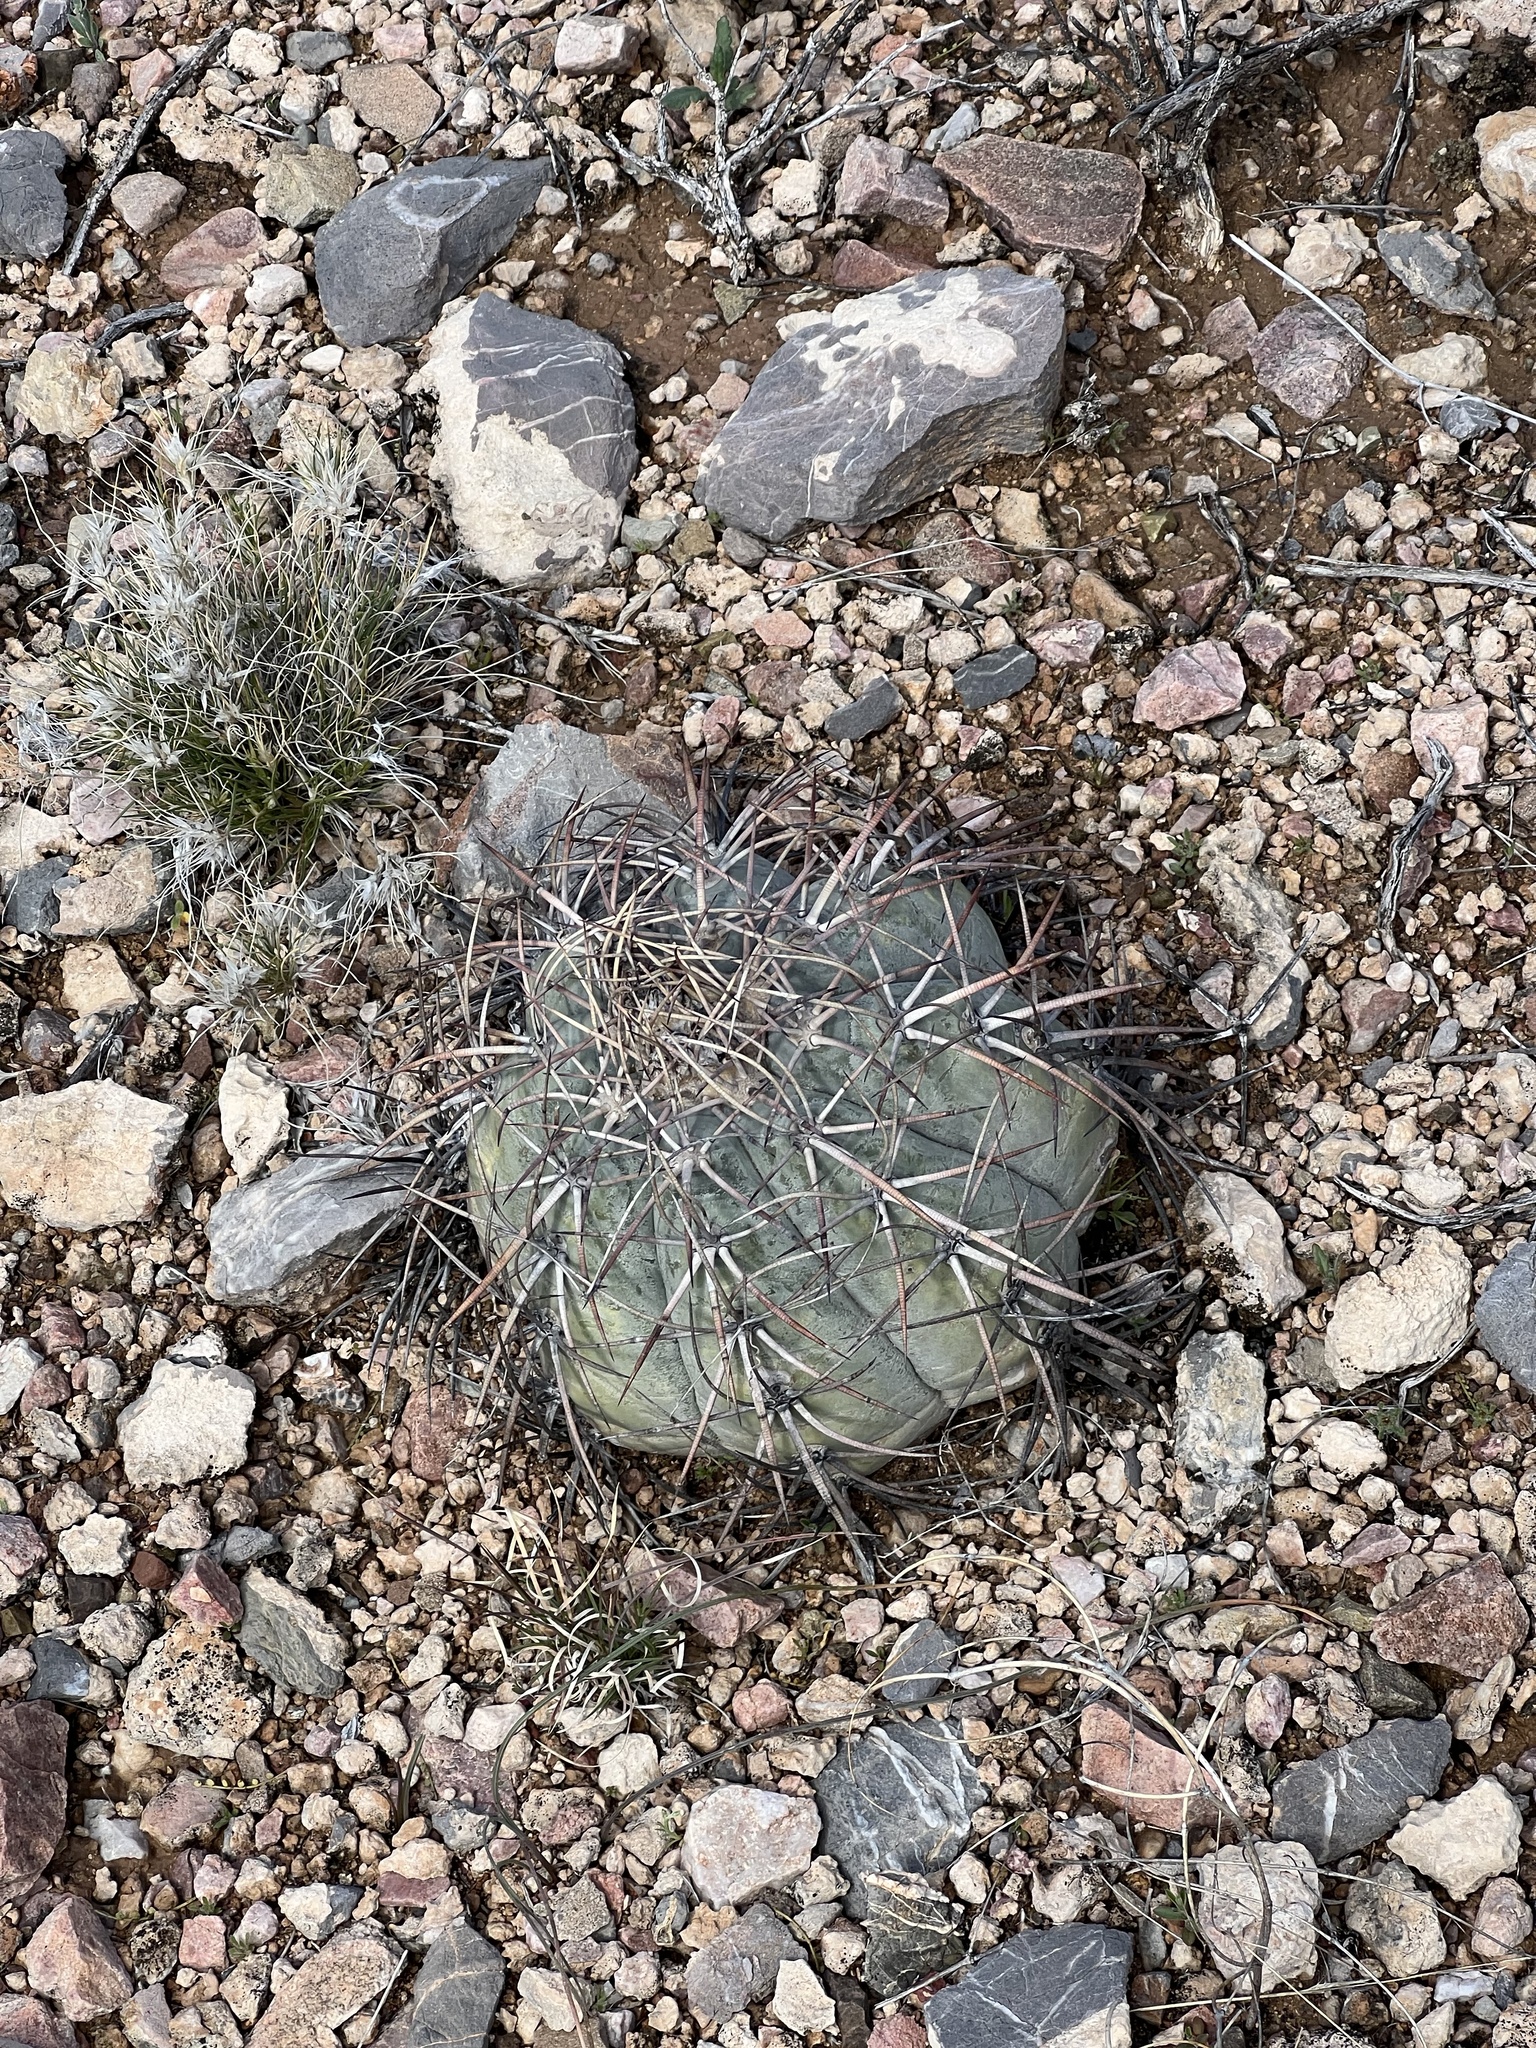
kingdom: Plantae
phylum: Tracheophyta
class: Magnoliopsida
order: Caryophyllales
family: Cactaceae
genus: Echinocactus
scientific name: Echinocactus horizonthalonius
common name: Devilshead
